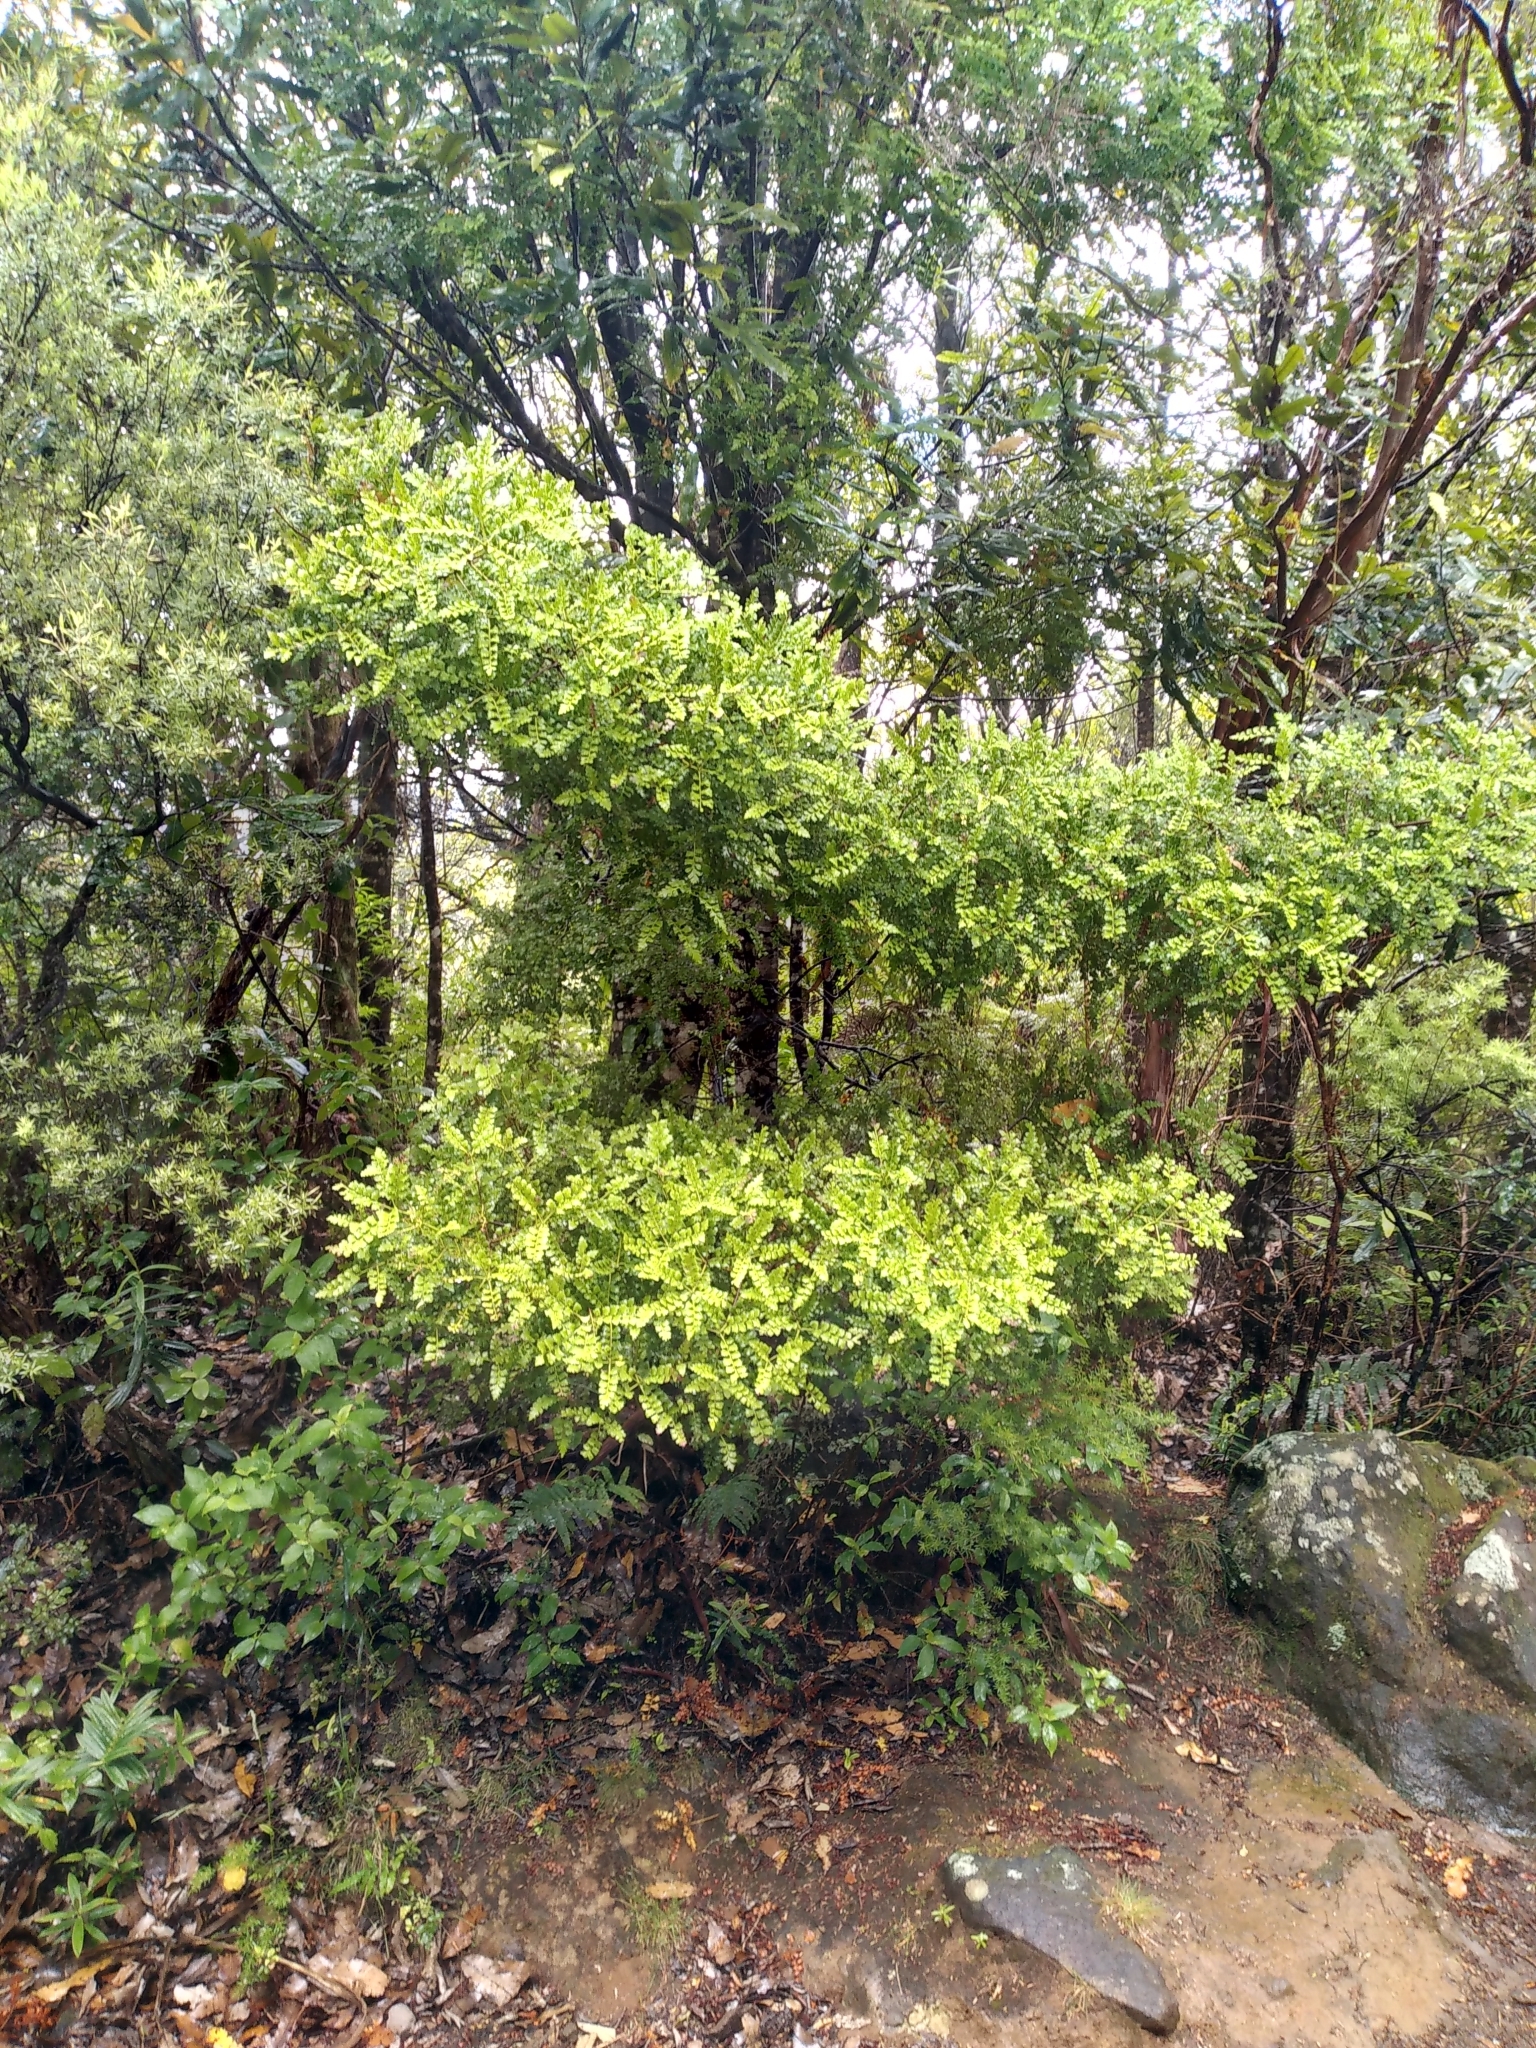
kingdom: Plantae
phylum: Tracheophyta
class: Pinopsida
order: Pinales
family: Phyllocladaceae
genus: Phyllocladus
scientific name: Phyllocladus trichomanoides
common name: Celery pine
